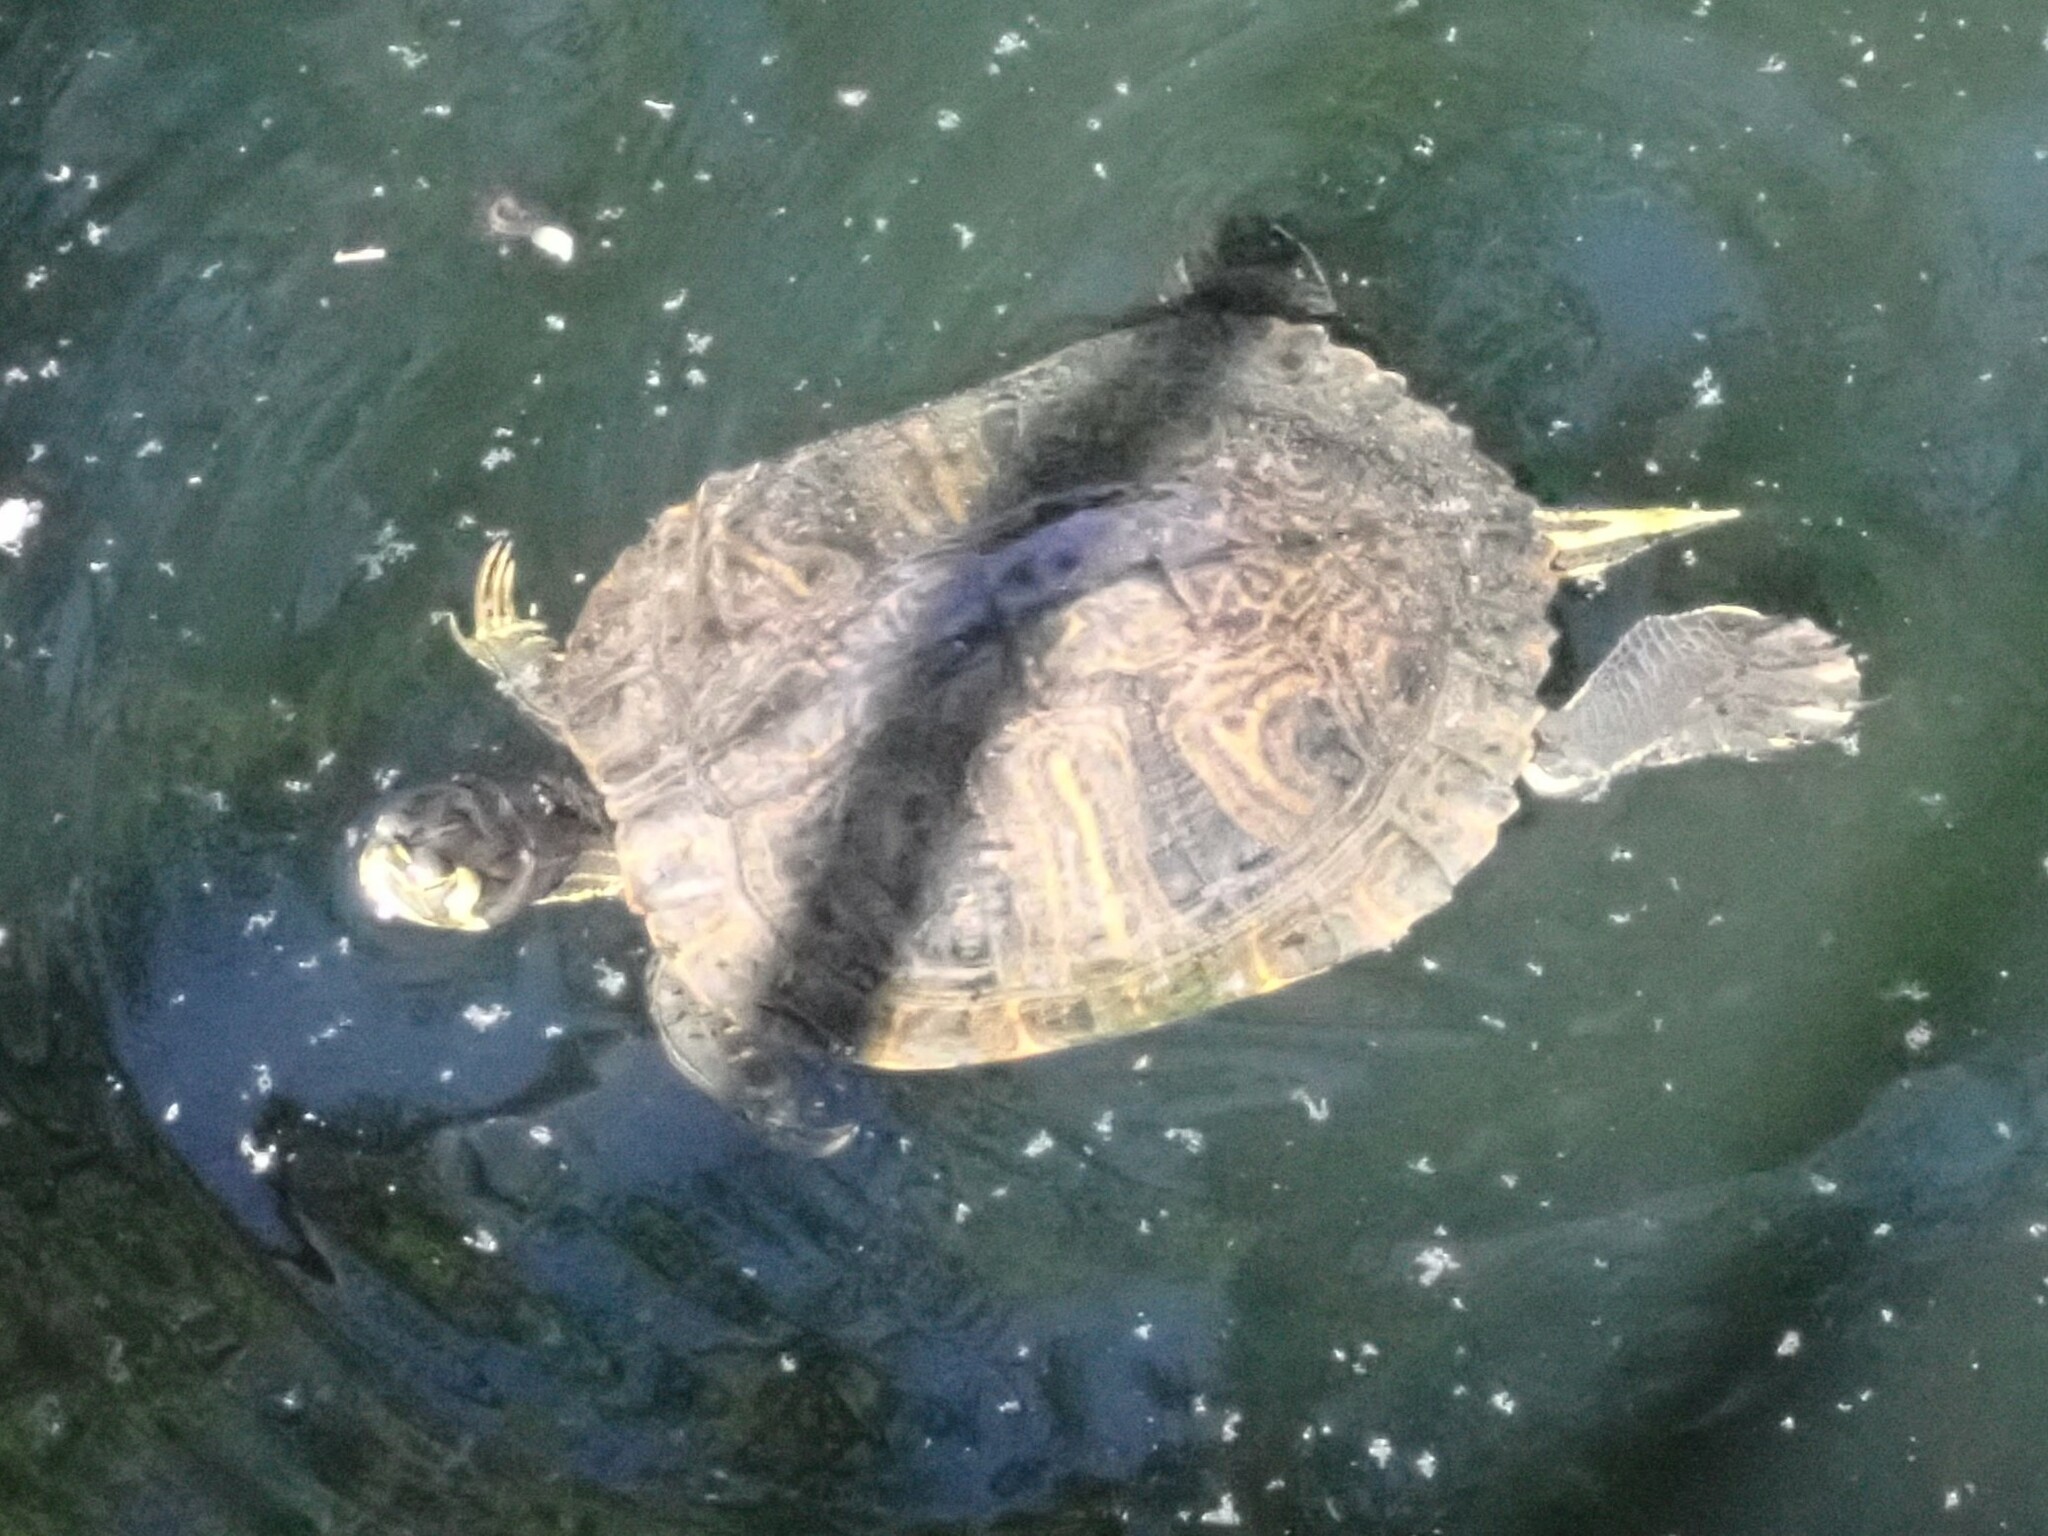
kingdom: Animalia
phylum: Chordata
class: Testudines
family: Emydidae
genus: Trachemys
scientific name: Trachemys scripta
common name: Slider
